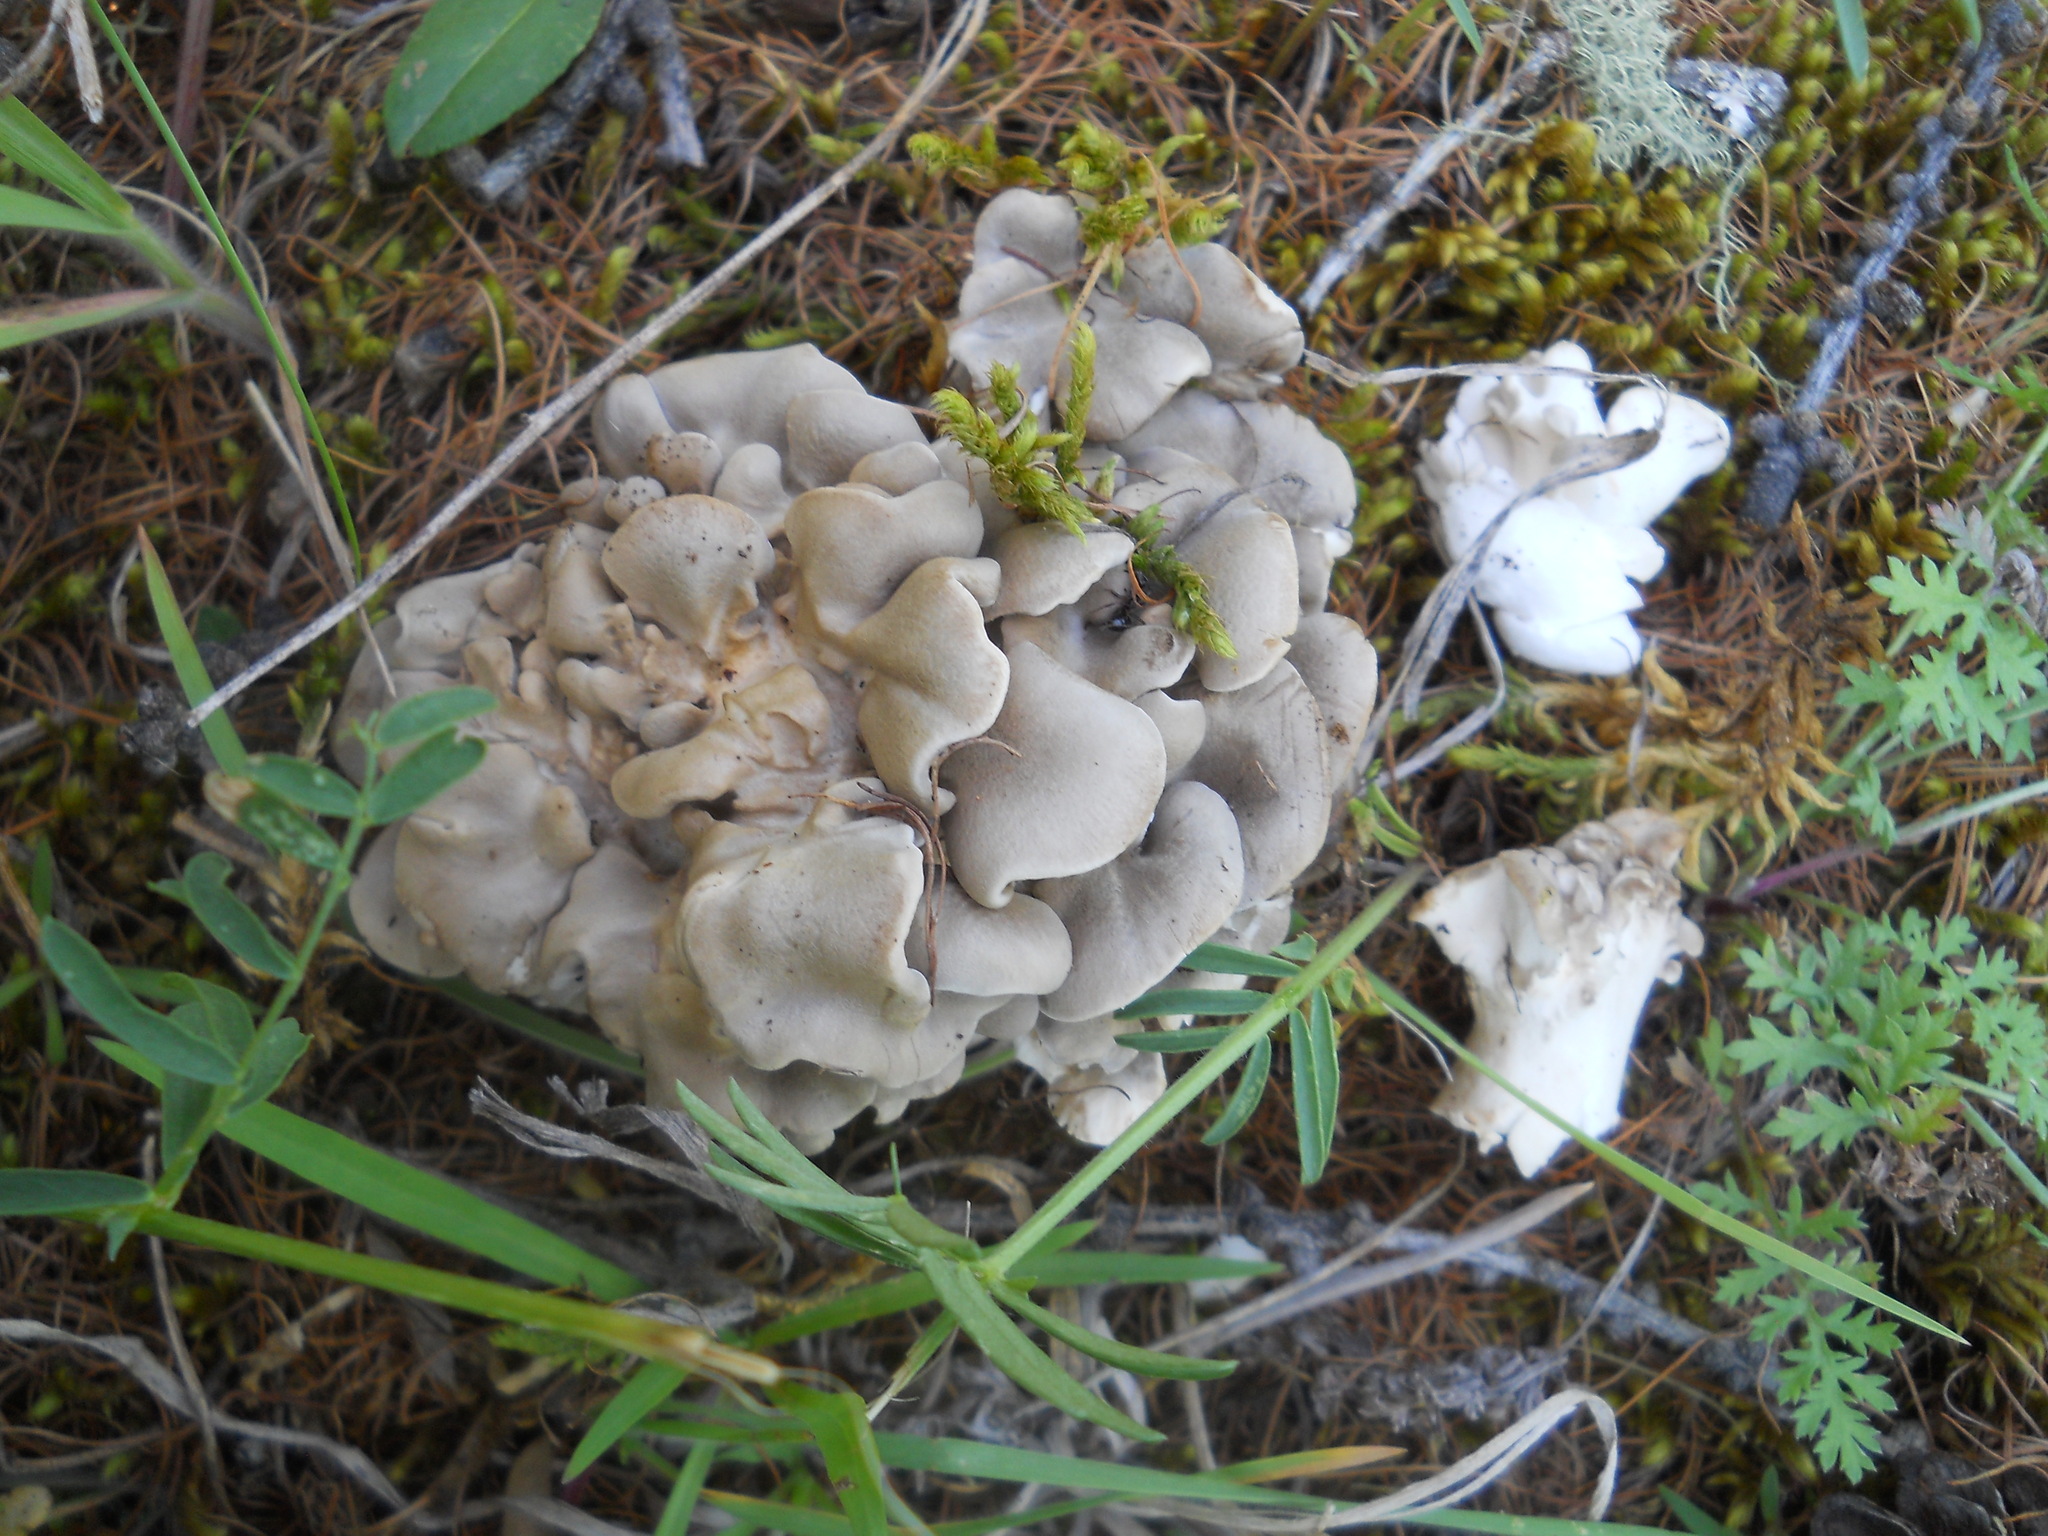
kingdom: Fungi
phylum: Basidiomycota
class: Agaricomycetes
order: Polyporales
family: Grifolaceae
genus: Grifola
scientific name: Grifola frondosa
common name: Hen of the woods
